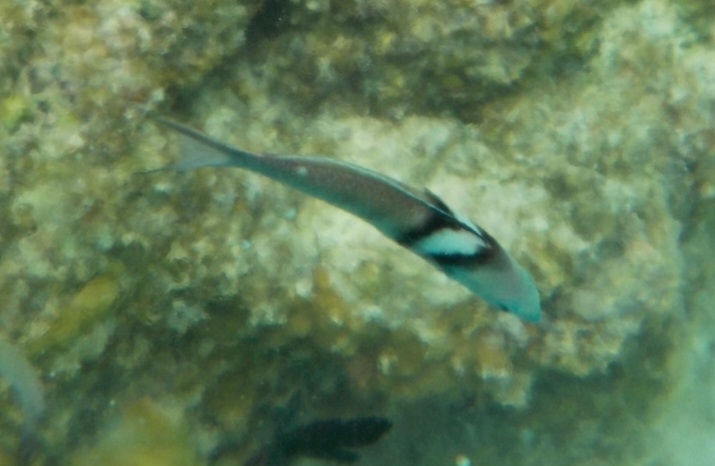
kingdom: Animalia
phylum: Chordata
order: Perciformes
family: Labridae
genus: Thalassoma
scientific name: Thalassoma bifasciatum
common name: Bluehead wrasse
